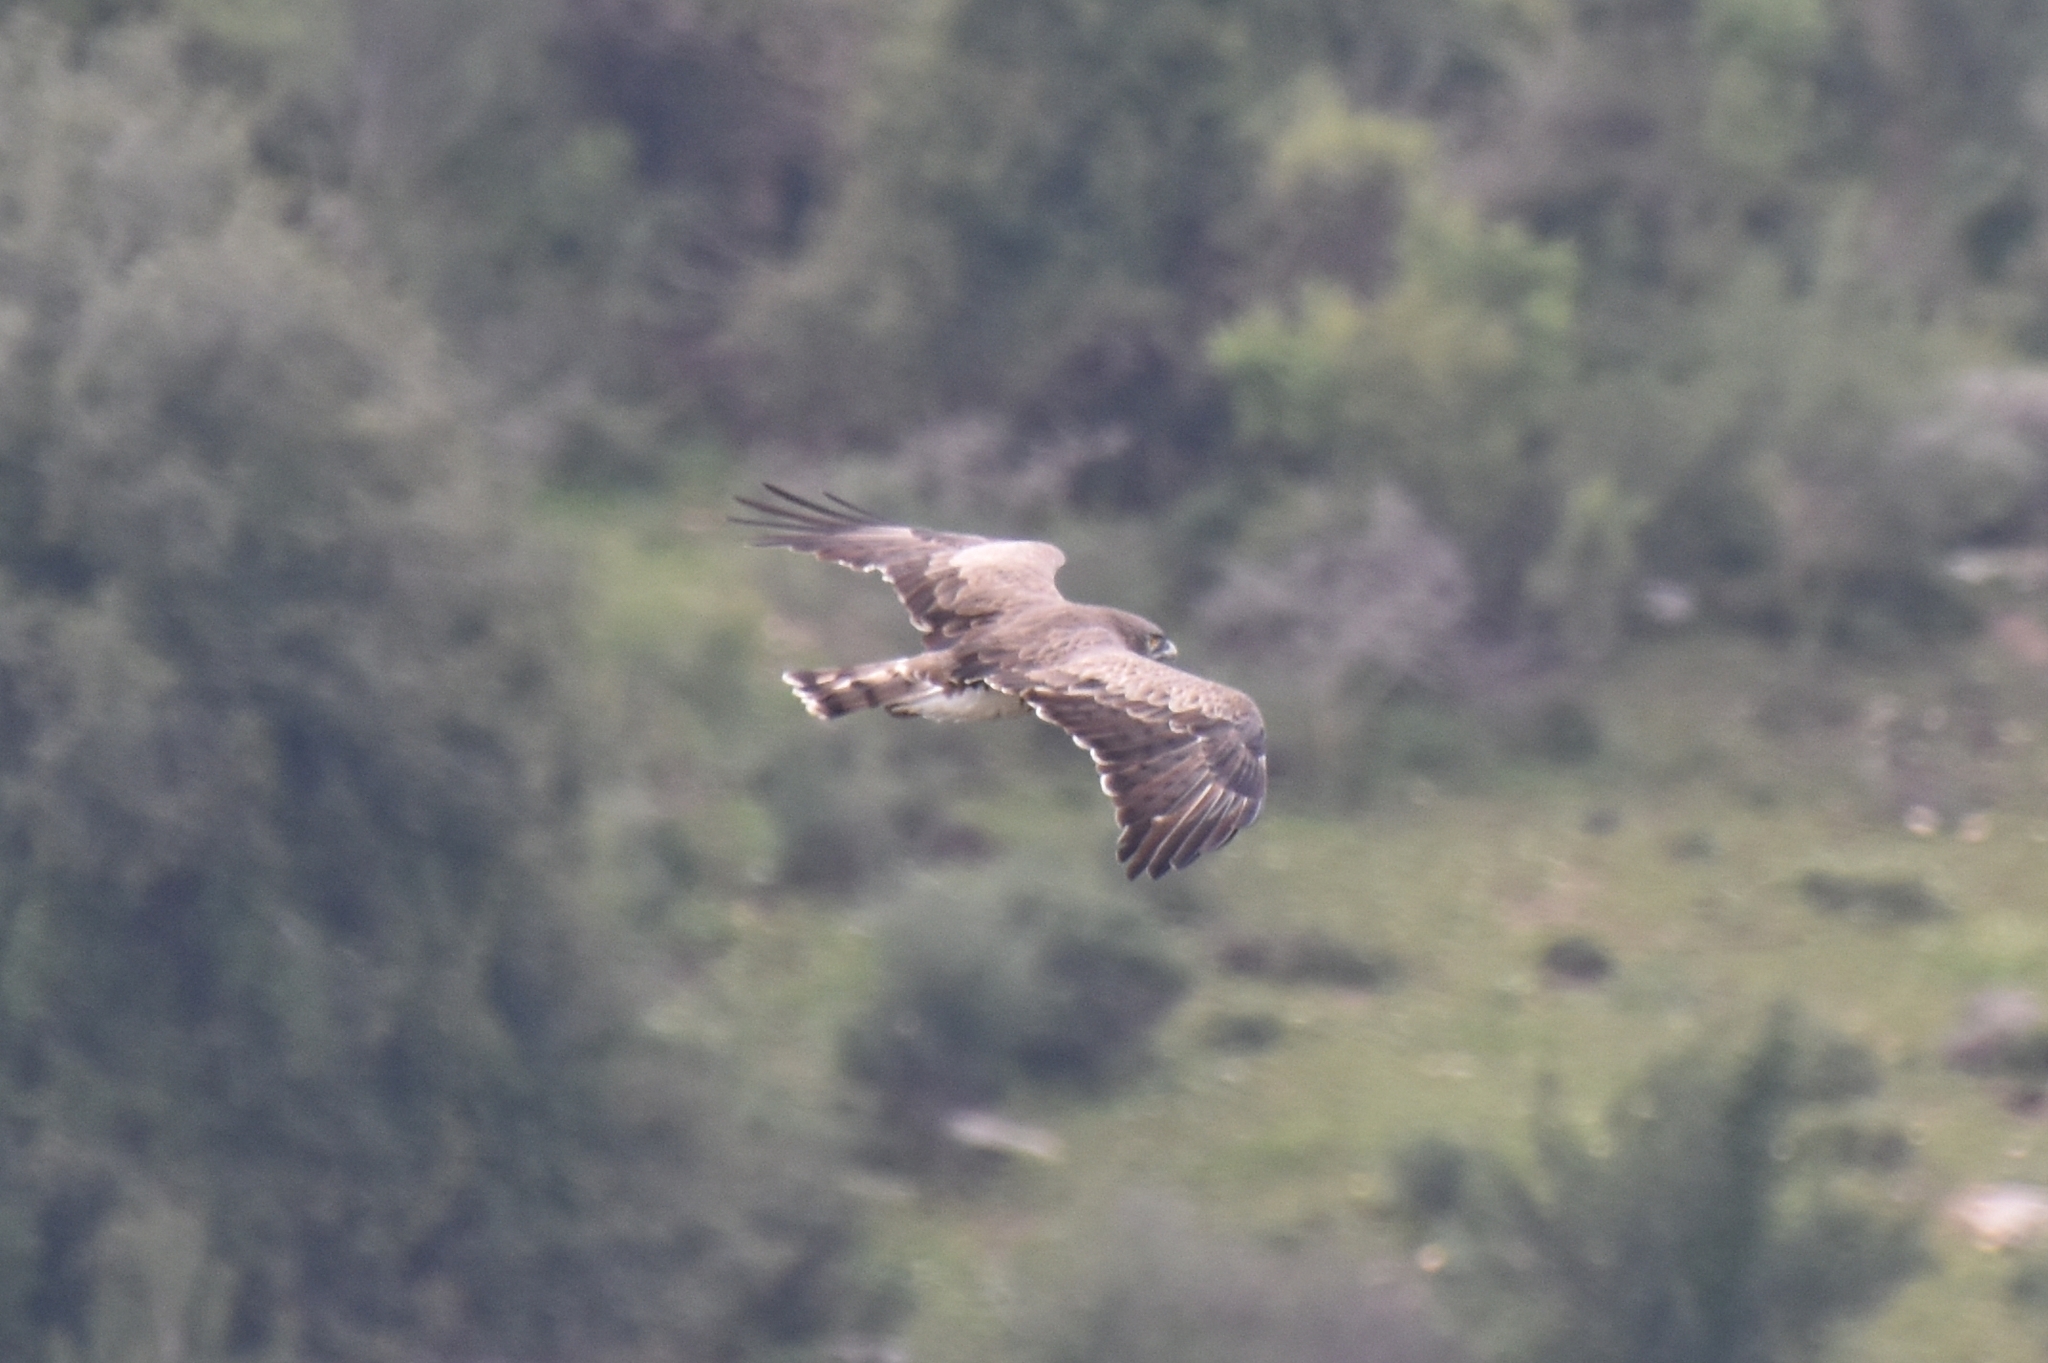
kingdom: Animalia
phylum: Chordata
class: Aves
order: Accipitriformes
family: Accipitridae
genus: Circaetus
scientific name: Circaetus gallicus
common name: Short-toed snake eagle
